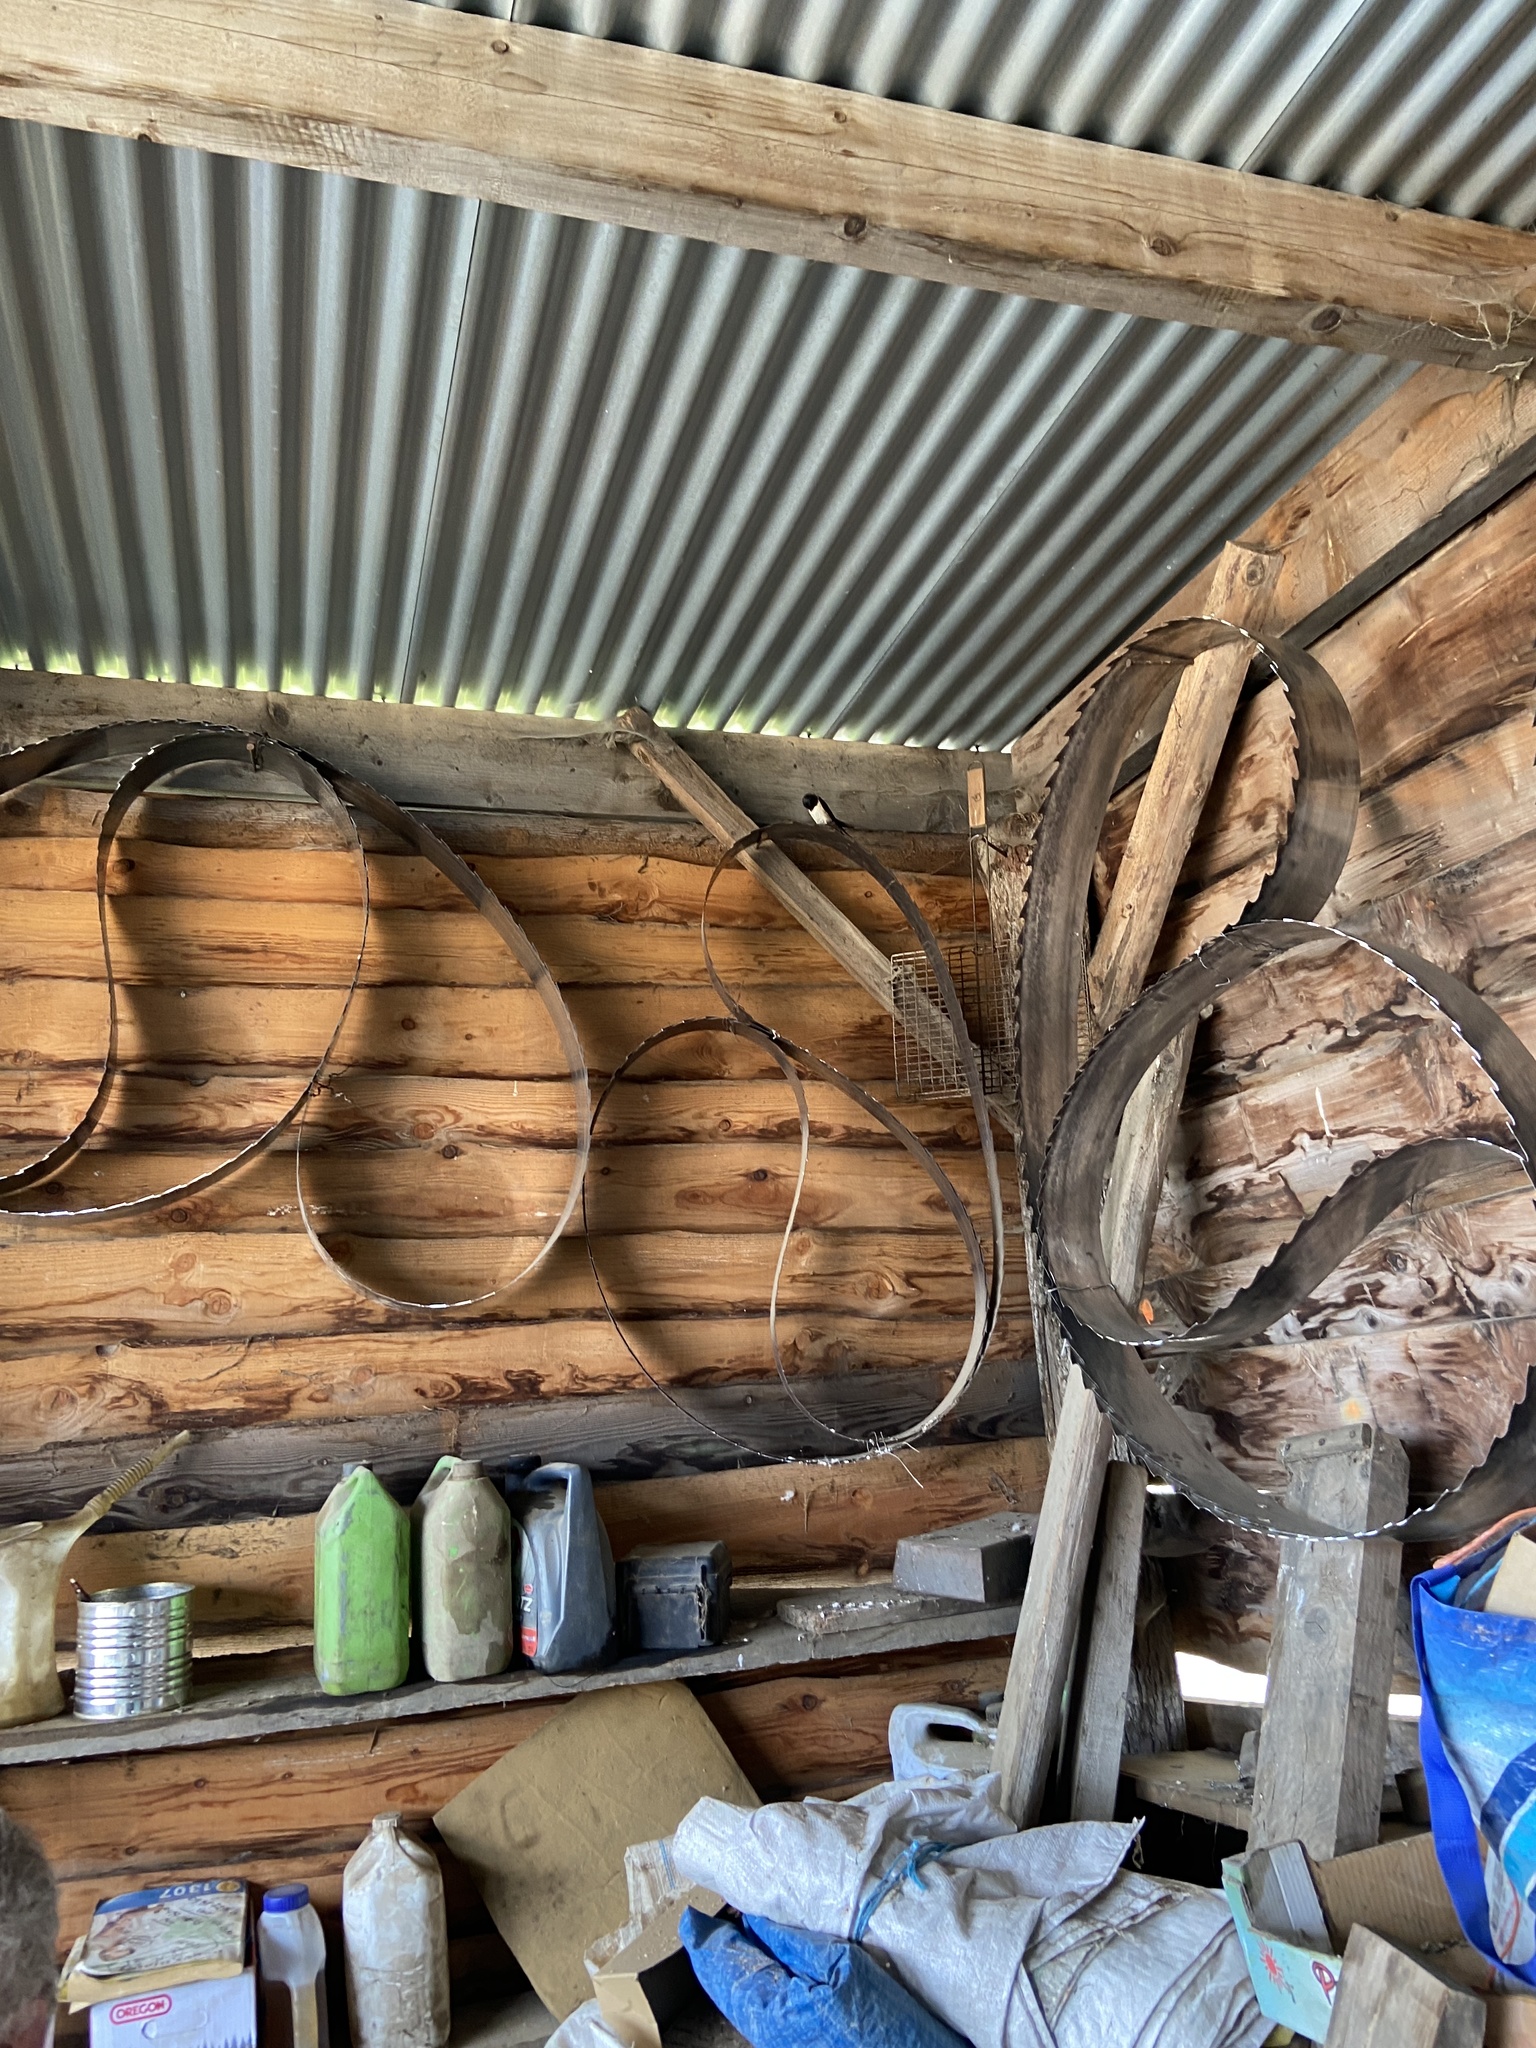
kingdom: Animalia
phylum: Chordata
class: Aves
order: Passeriformes
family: Hirundinidae
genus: Hirundo
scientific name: Hirundo rustica
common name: Barn swallow
